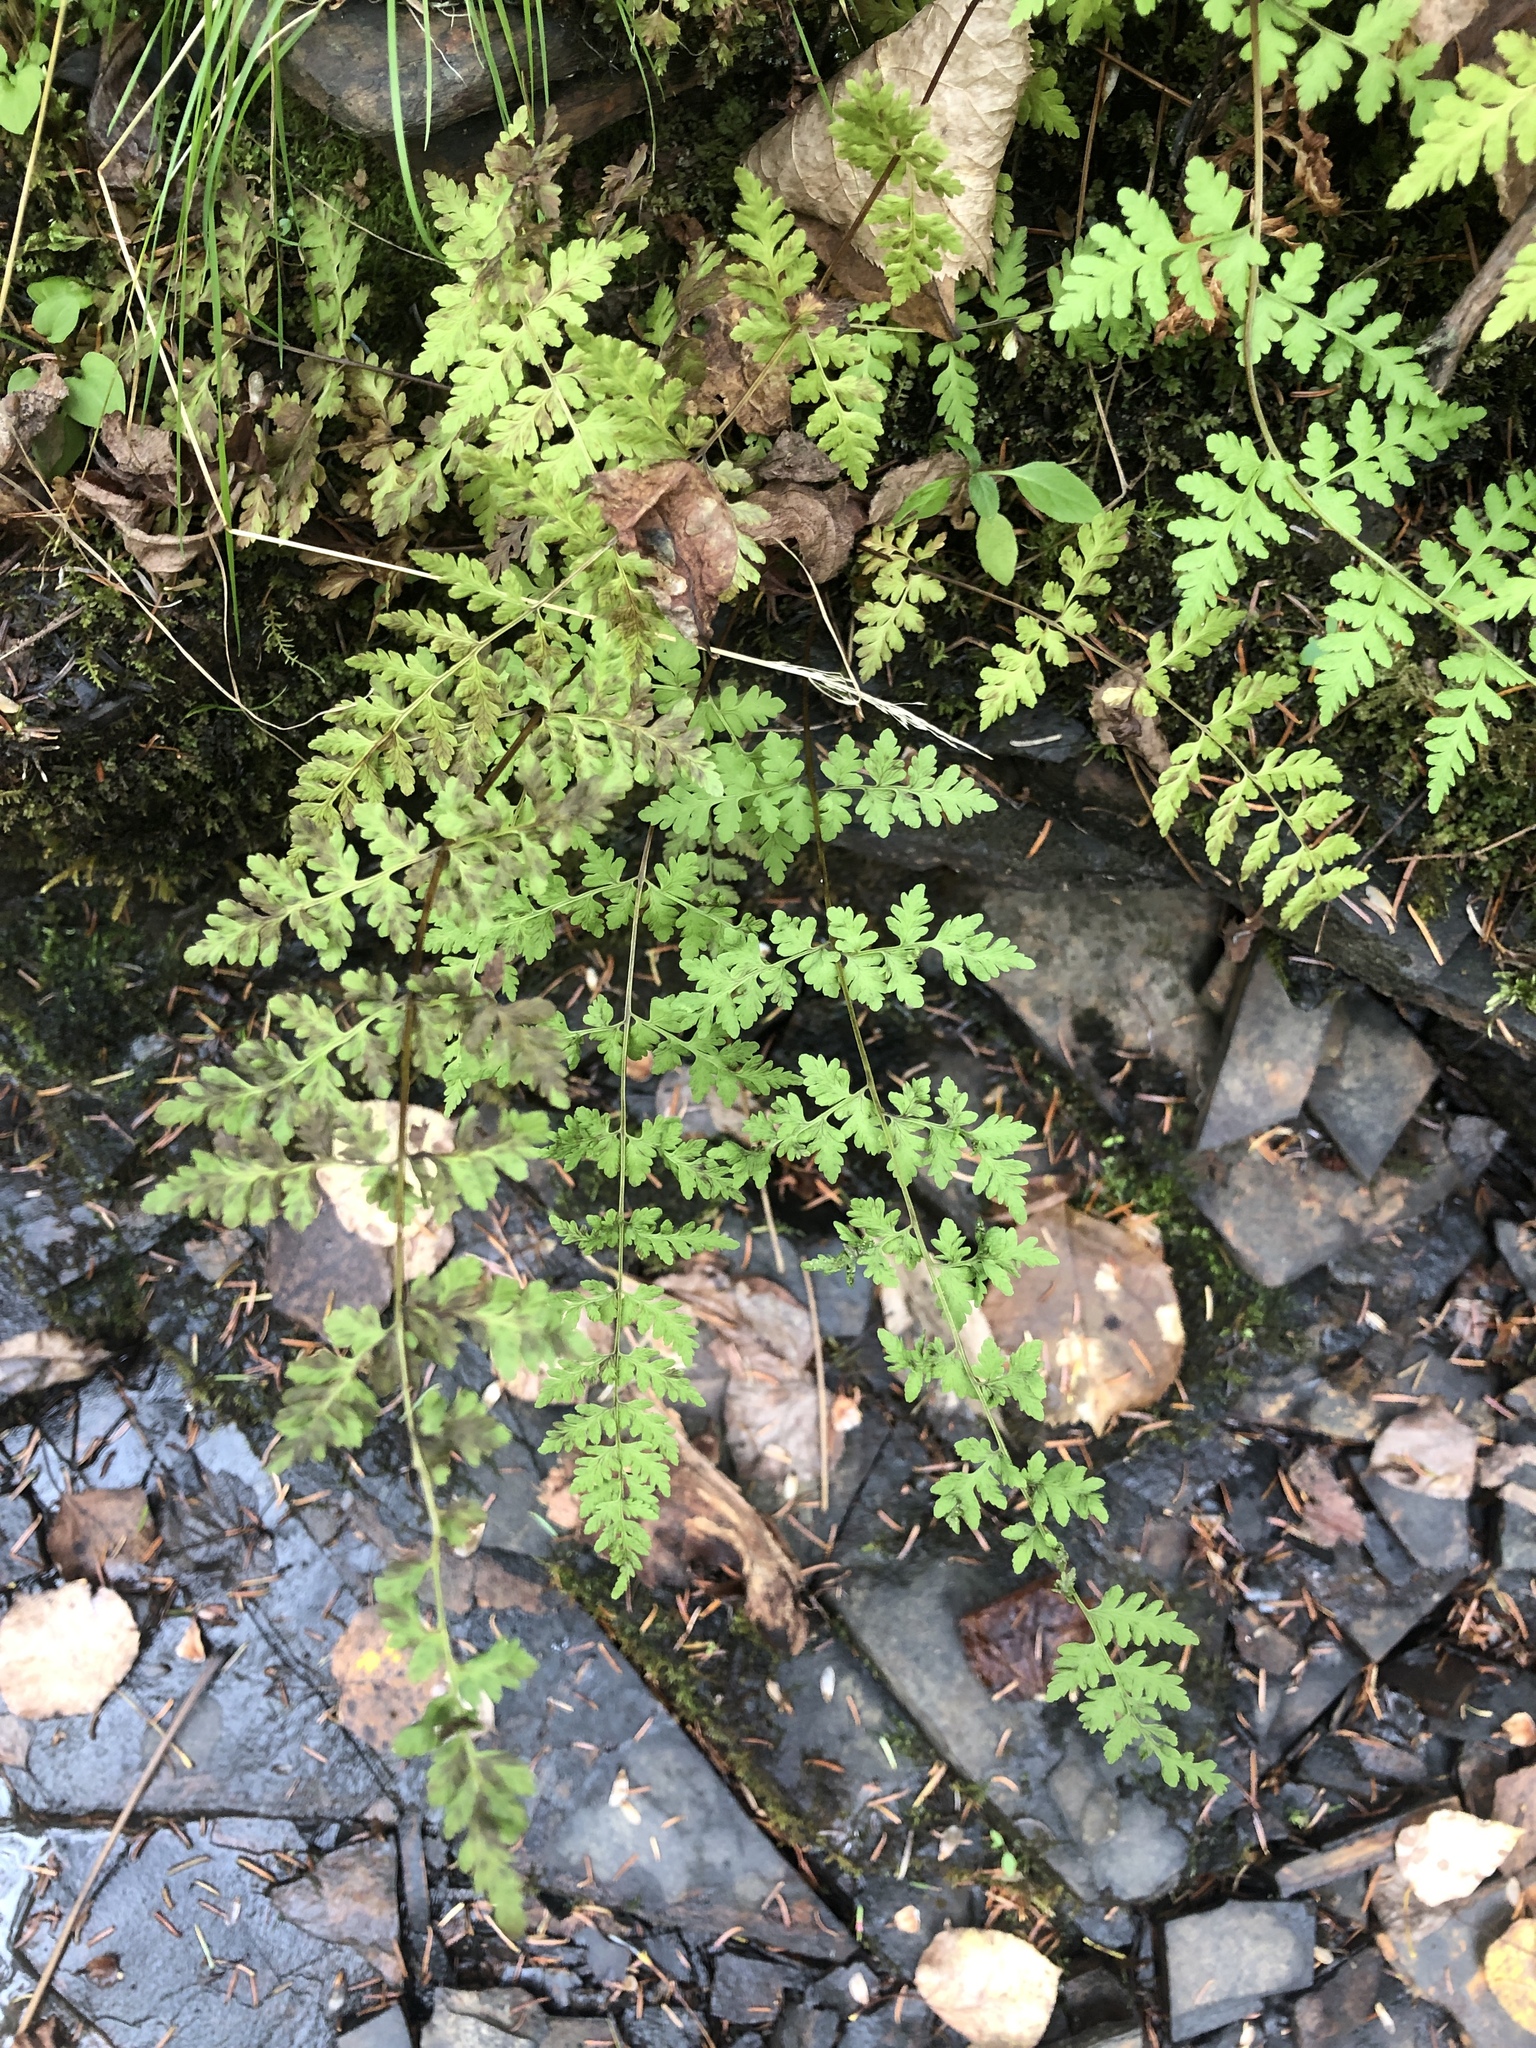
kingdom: Plantae
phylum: Tracheophyta
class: Polypodiopsida
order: Polypodiales
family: Cystopteridaceae
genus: Cystopteris
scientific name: Cystopteris fragilis
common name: Brittle bladder fern
